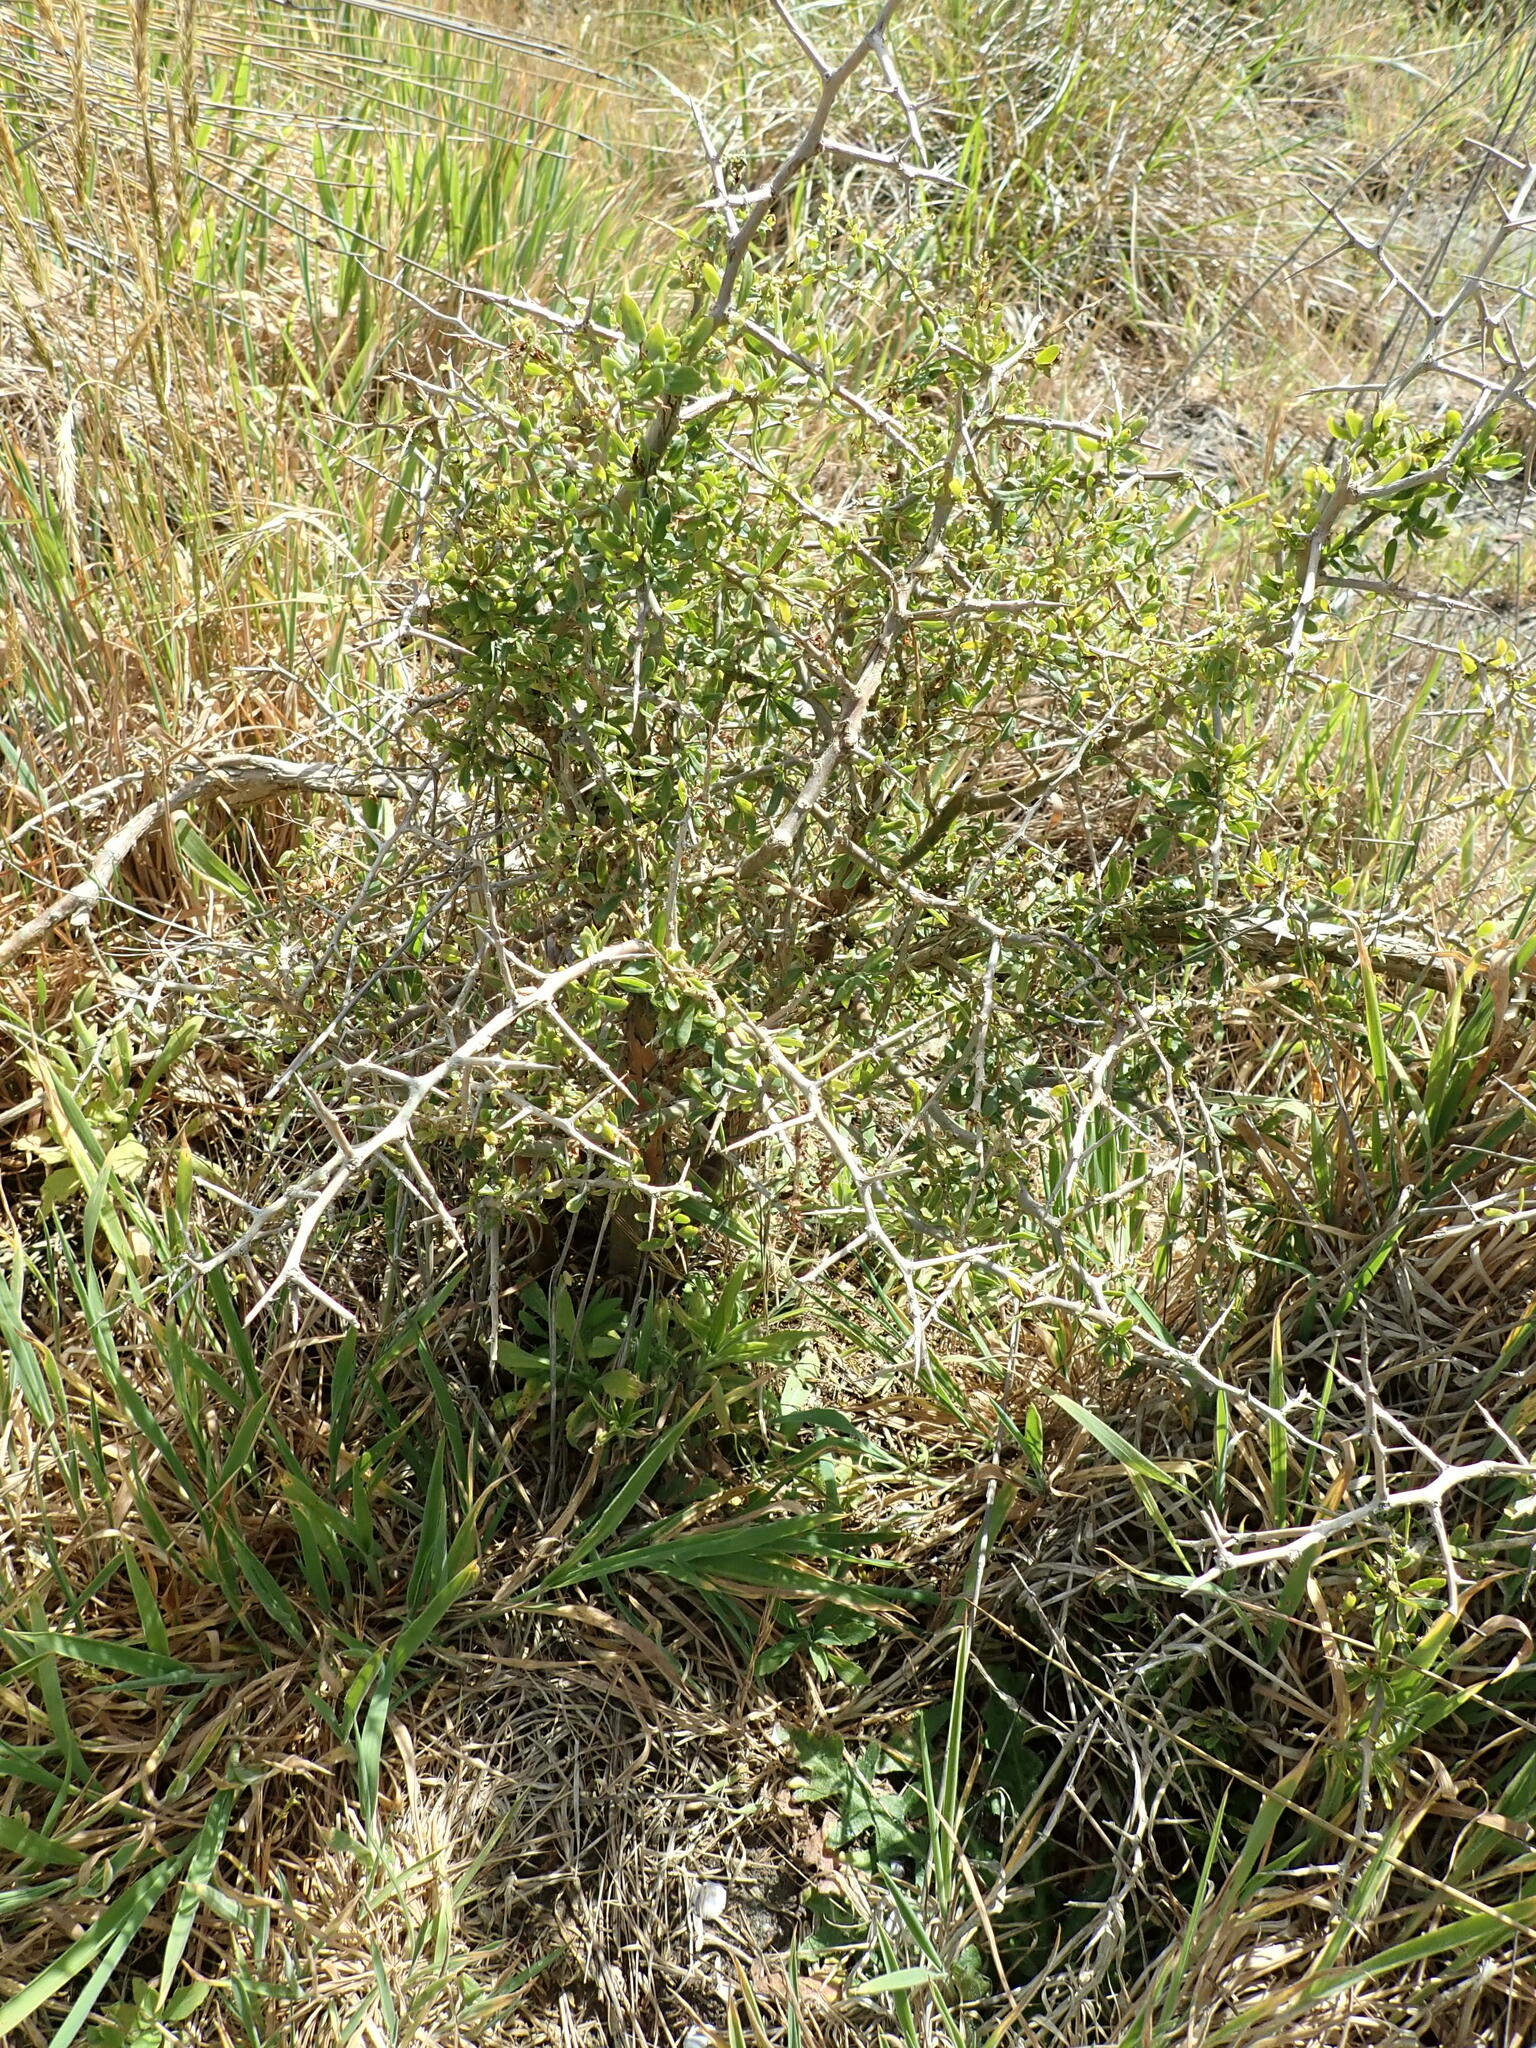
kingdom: Plantae
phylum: Tracheophyta
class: Magnoliopsida
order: Solanales
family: Solanaceae
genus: Lycium
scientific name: Lycium ferocissimum
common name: African boxthorn
